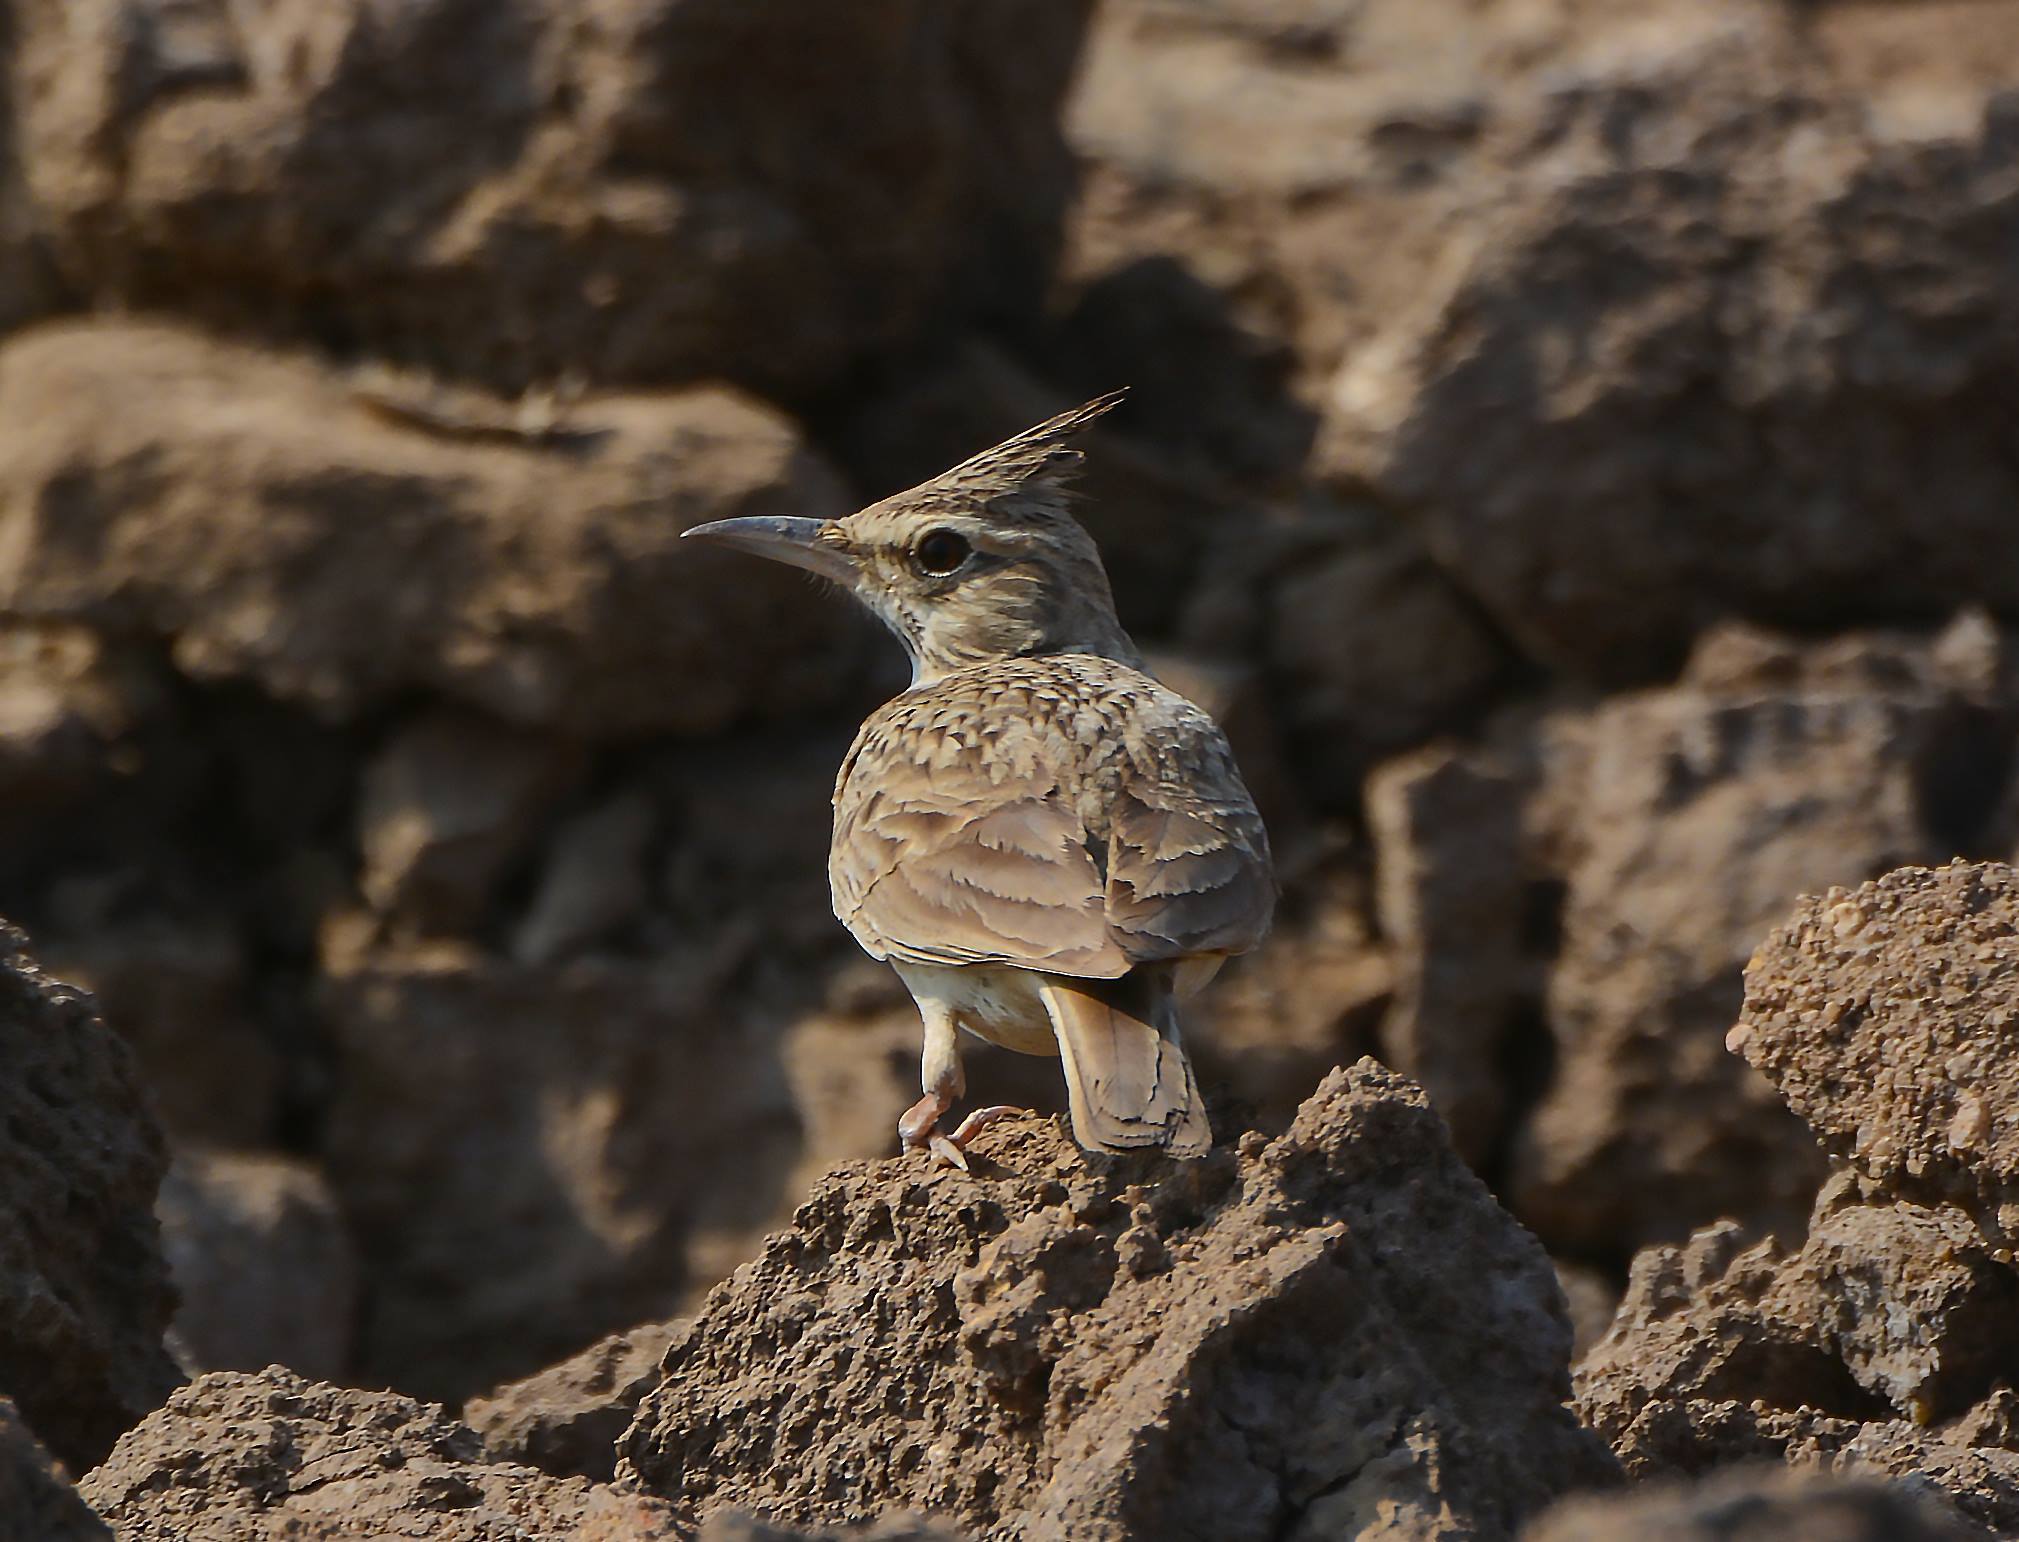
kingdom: Animalia
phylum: Chordata
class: Aves
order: Passeriformes
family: Alaudidae
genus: Galerida
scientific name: Galerida cristata
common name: Crested lark
